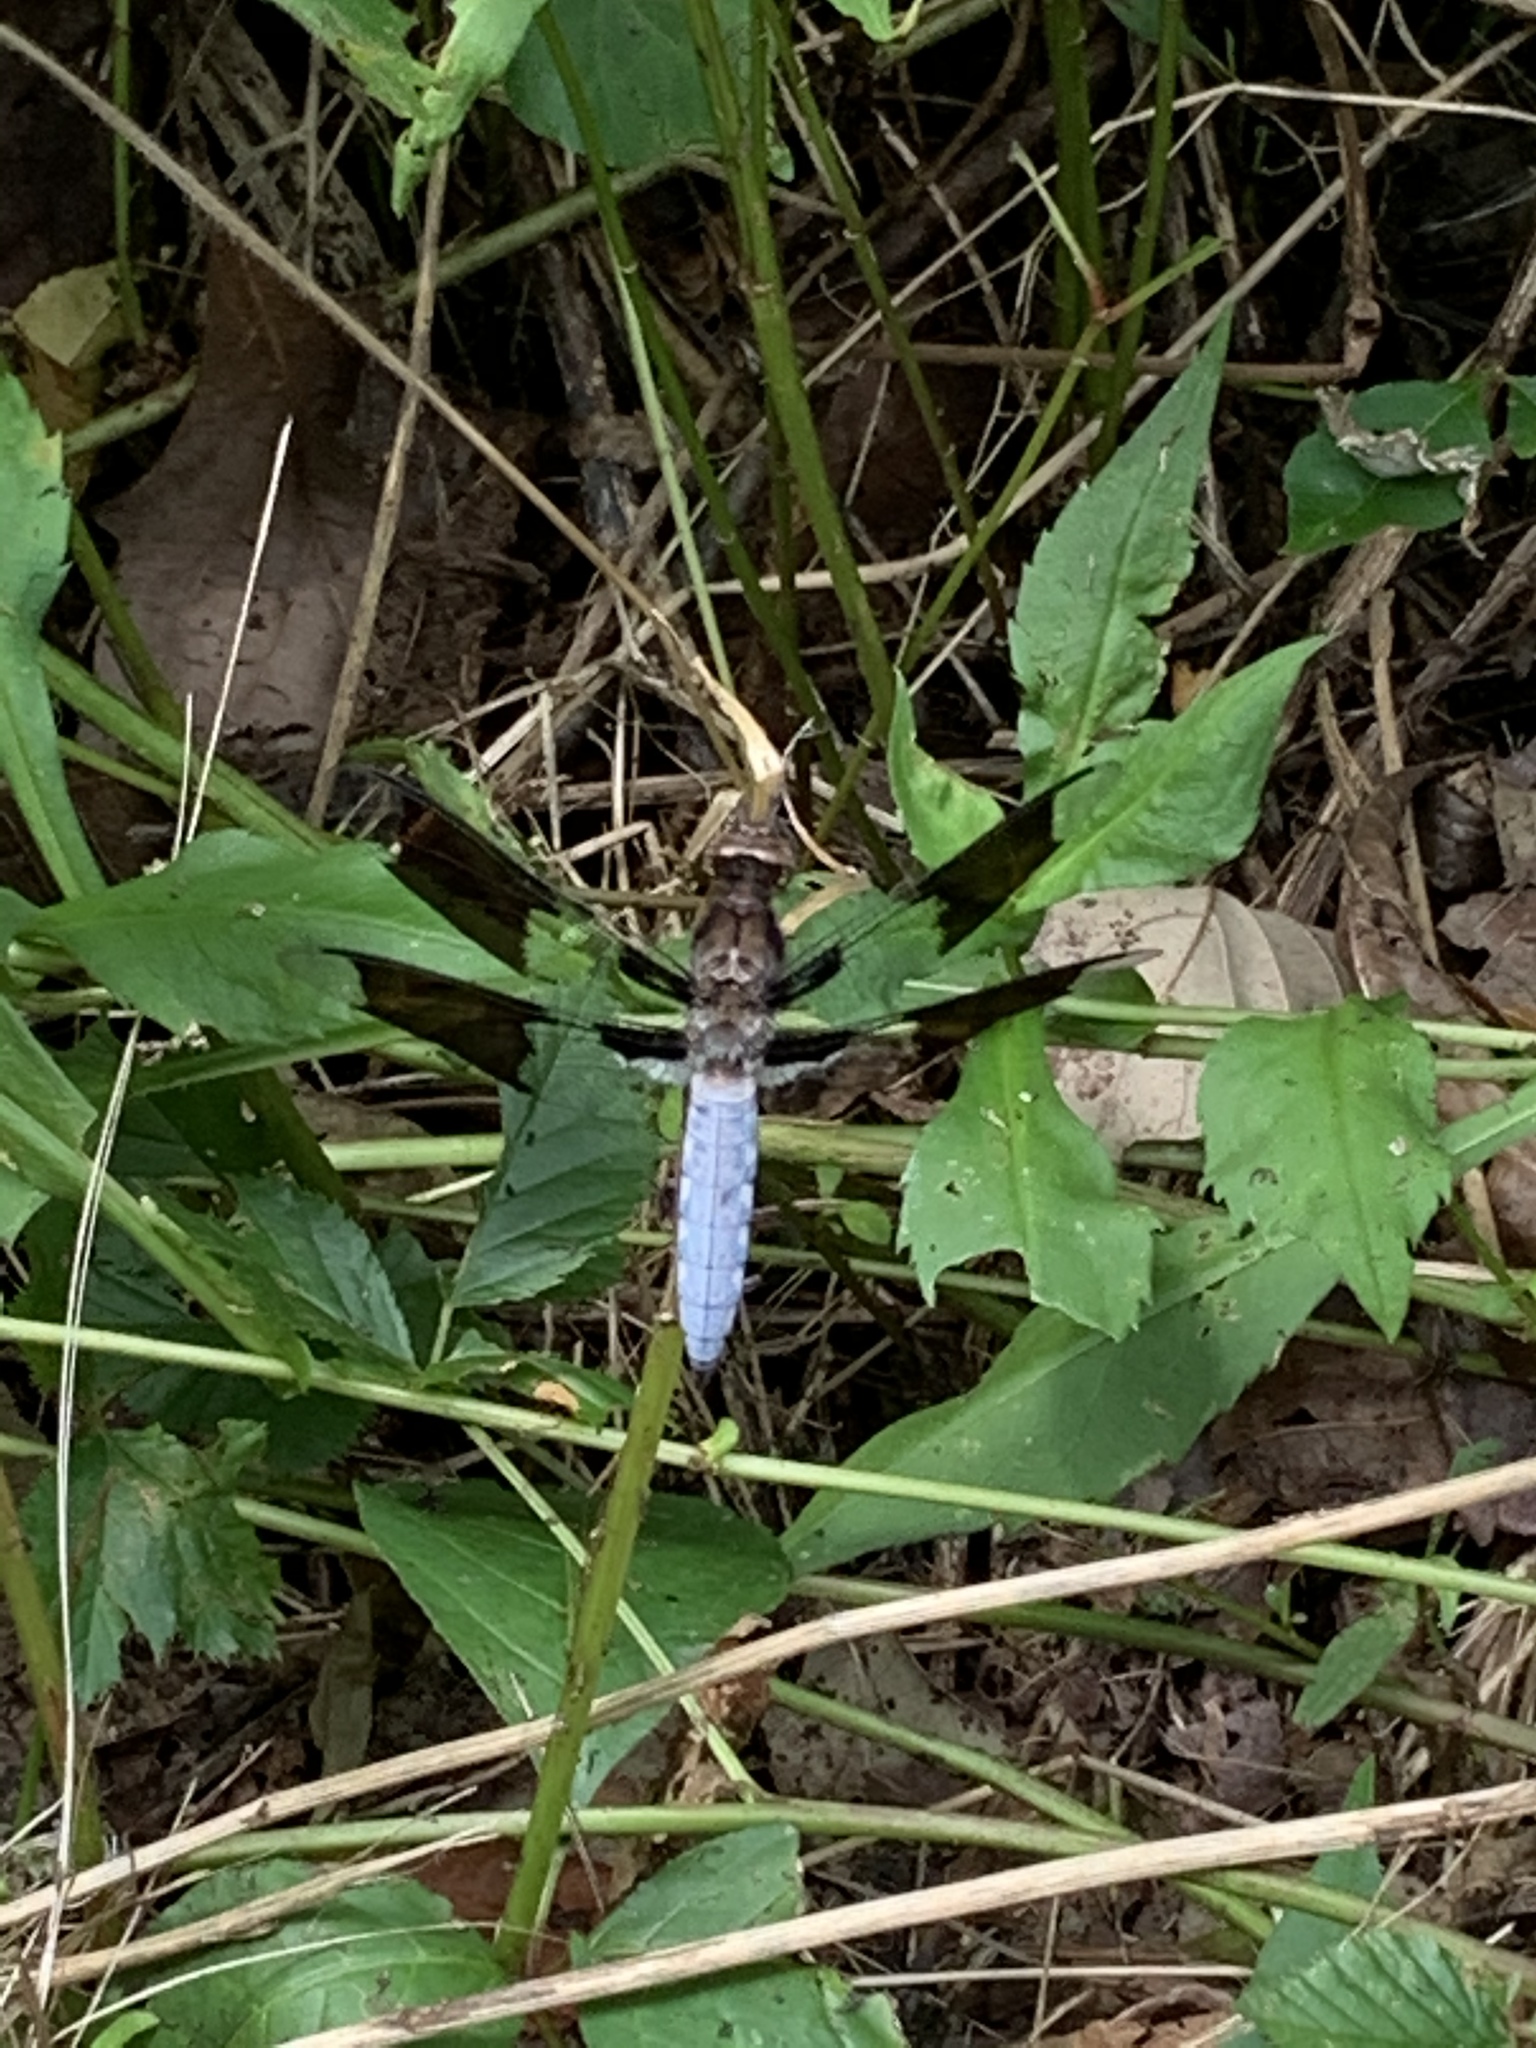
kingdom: Animalia
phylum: Arthropoda
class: Insecta
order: Odonata
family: Libellulidae
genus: Plathemis
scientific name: Plathemis lydia
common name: Common whitetail
